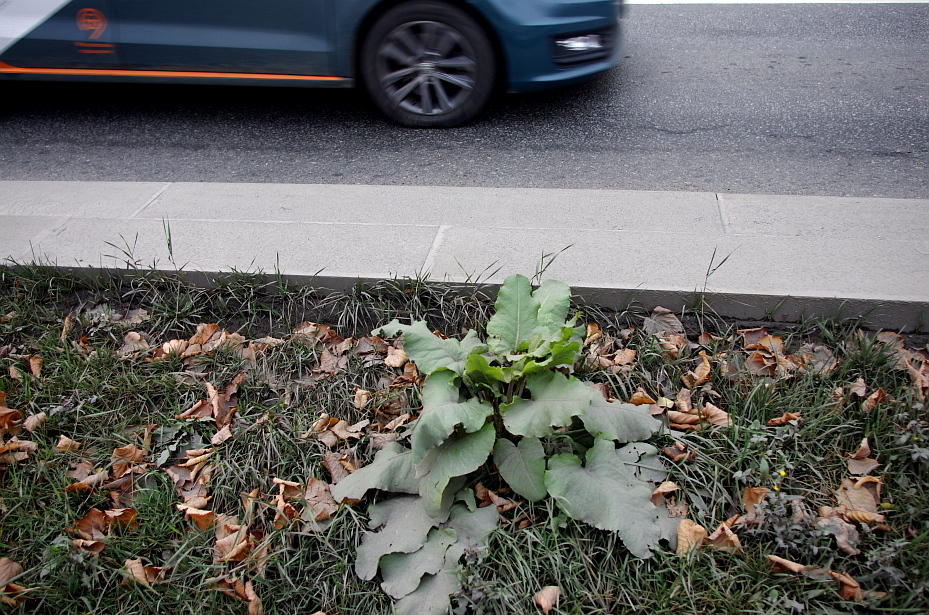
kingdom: Plantae
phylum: Tracheophyta
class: Magnoliopsida
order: Asterales
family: Asteraceae
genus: Arctium
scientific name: Arctium
